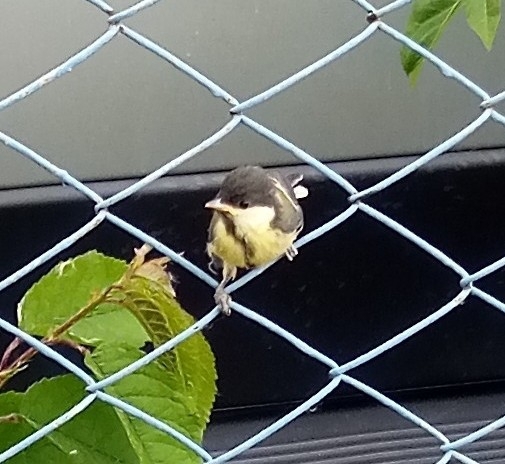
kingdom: Animalia
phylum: Chordata
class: Aves
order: Passeriformes
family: Paridae
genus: Parus
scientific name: Parus major
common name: Great tit
